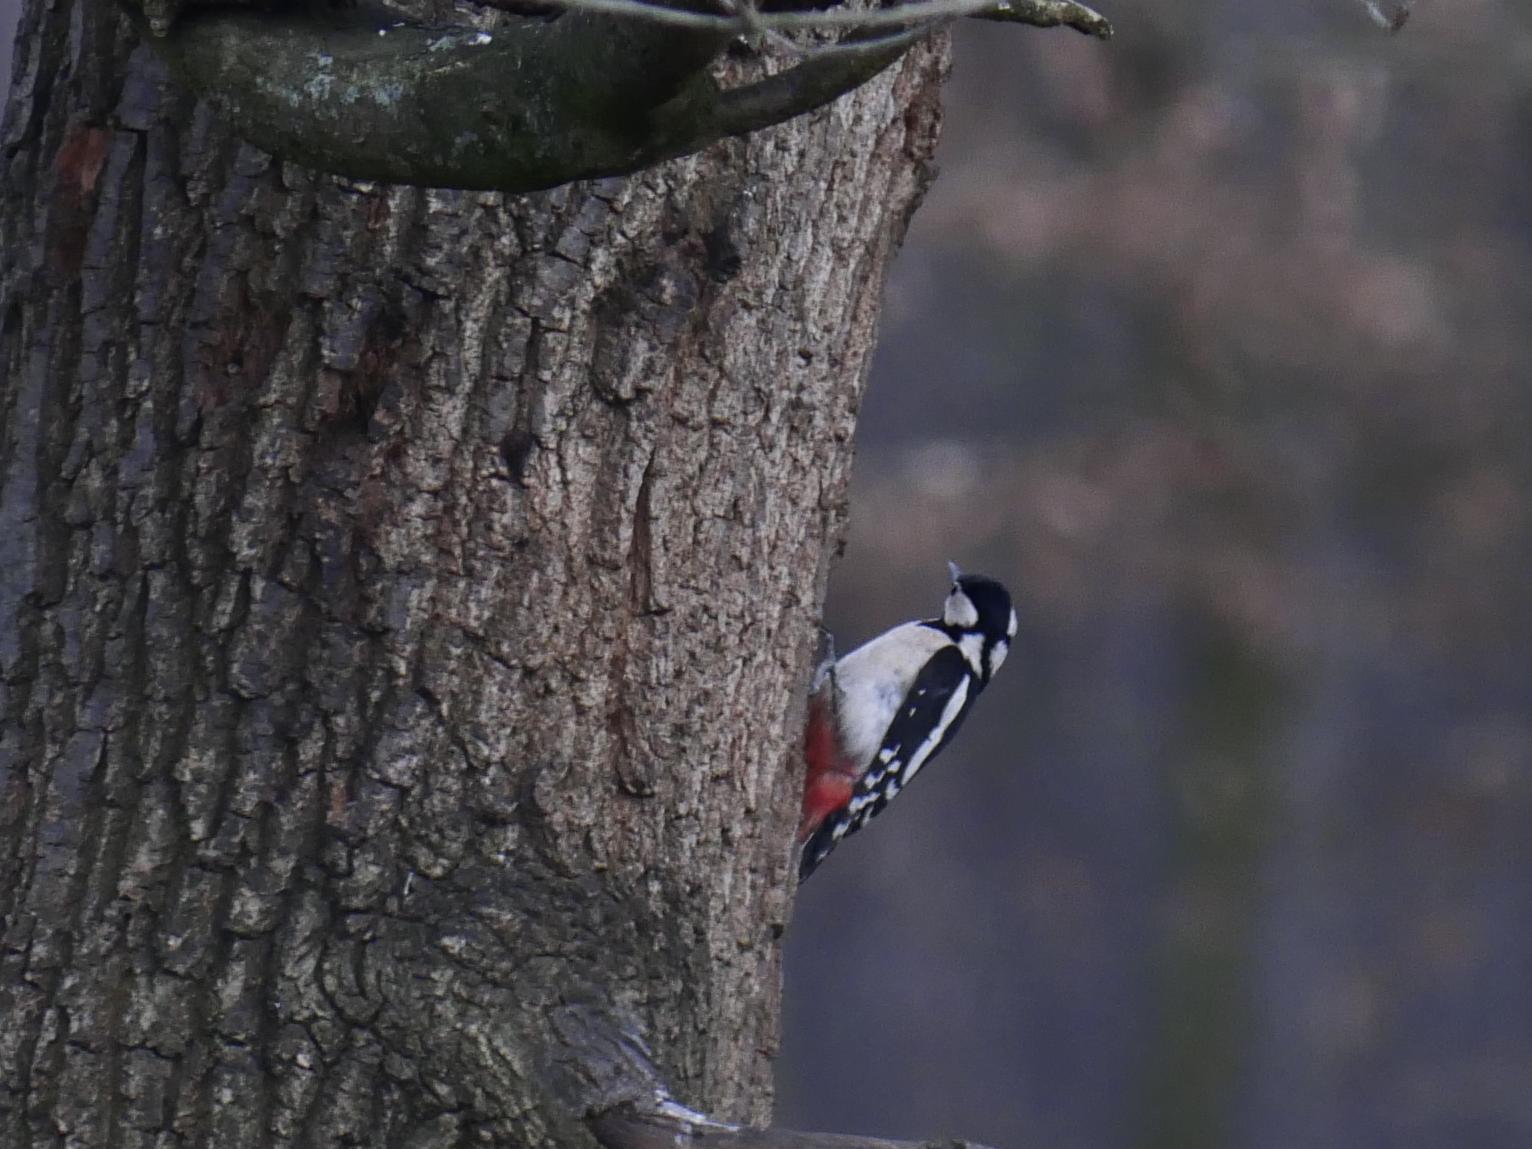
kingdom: Animalia
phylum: Chordata
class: Aves
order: Piciformes
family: Picidae
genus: Dendrocopos
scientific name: Dendrocopos major
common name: Great spotted woodpecker
